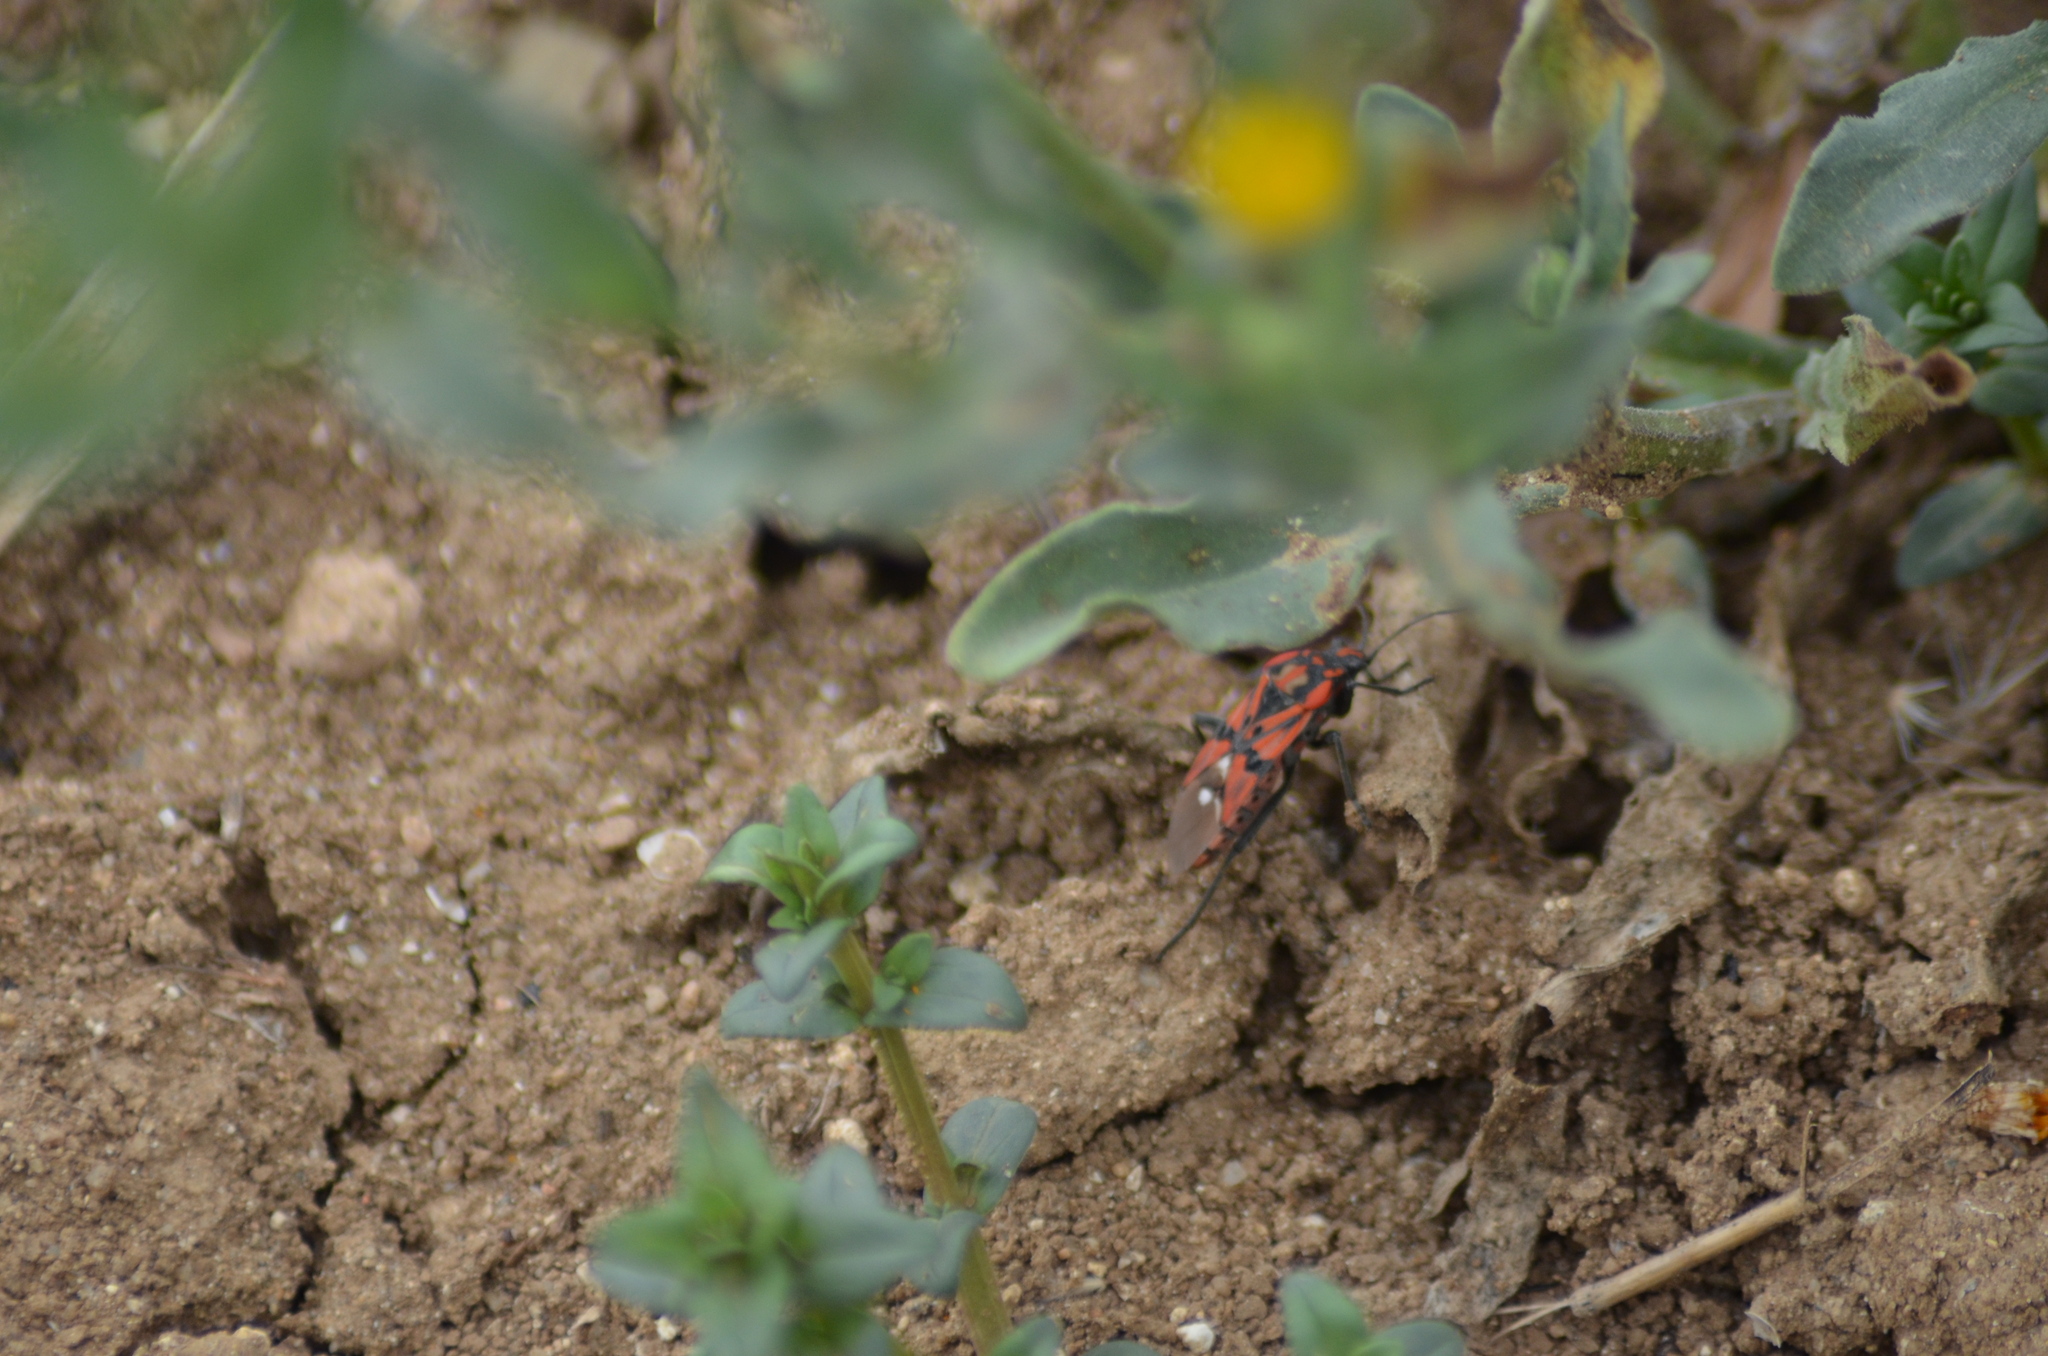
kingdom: Animalia
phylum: Arthropoda
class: Insecta
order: Hemiptera
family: Lygaeidae
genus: Spilostethus
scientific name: Spilostethus pandurus
